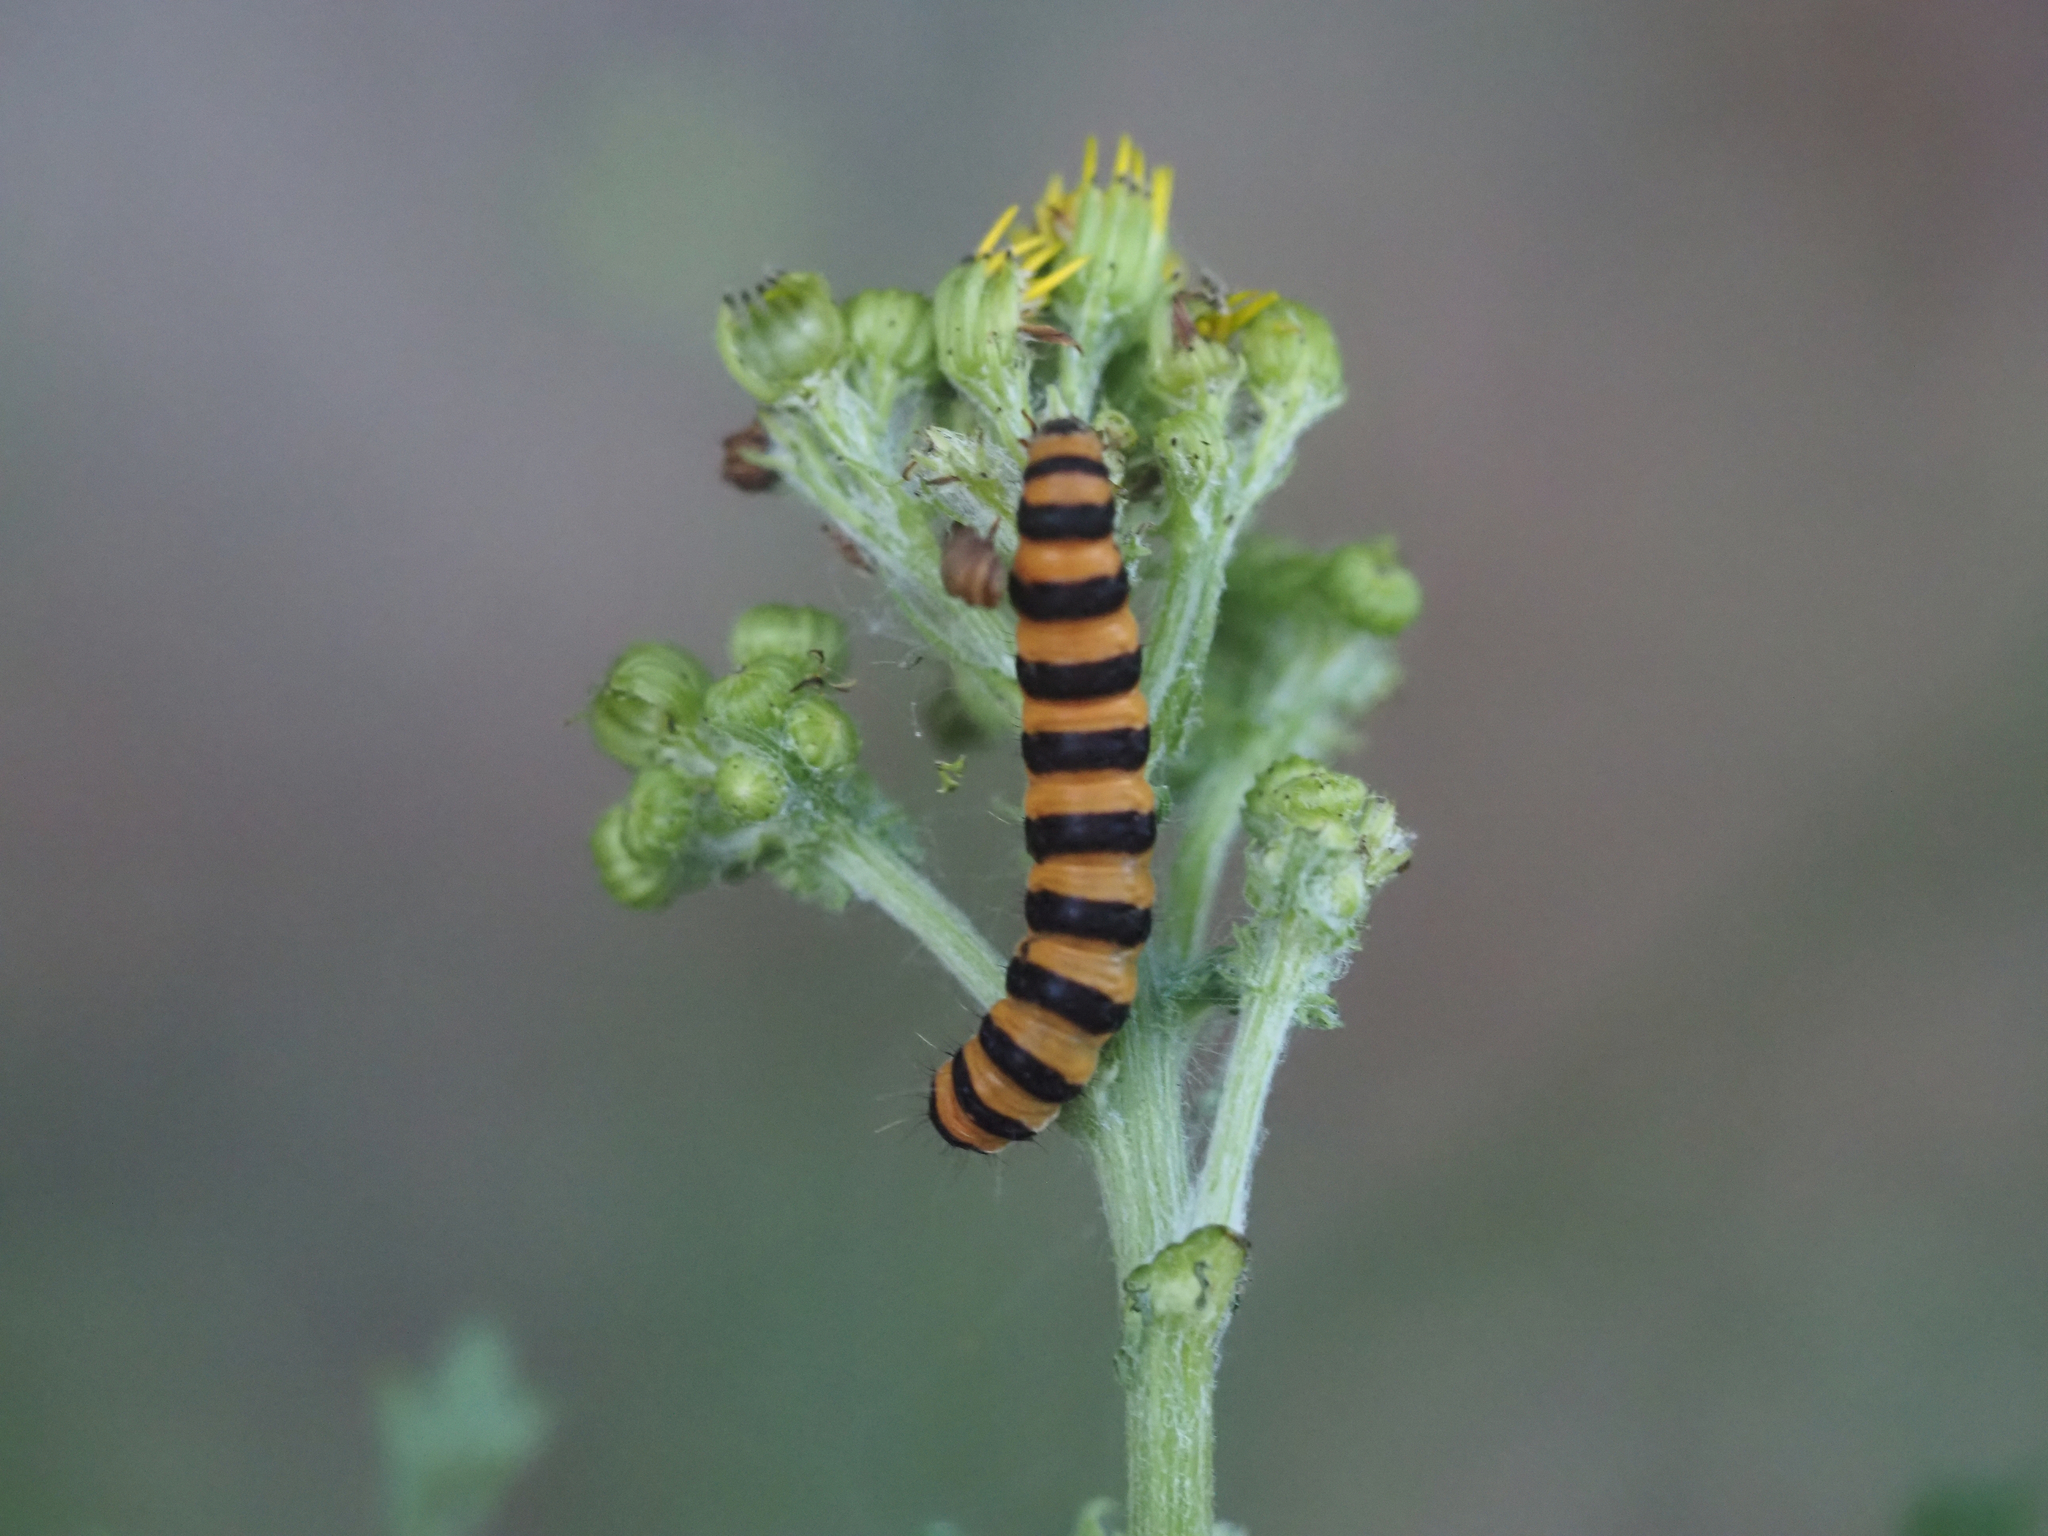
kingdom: Animalia
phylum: Arthropoda
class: Insecta
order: Lepidoptera
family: Erebidae
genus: Tyria
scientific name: Tyria jacobaeae
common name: Cinnabar
